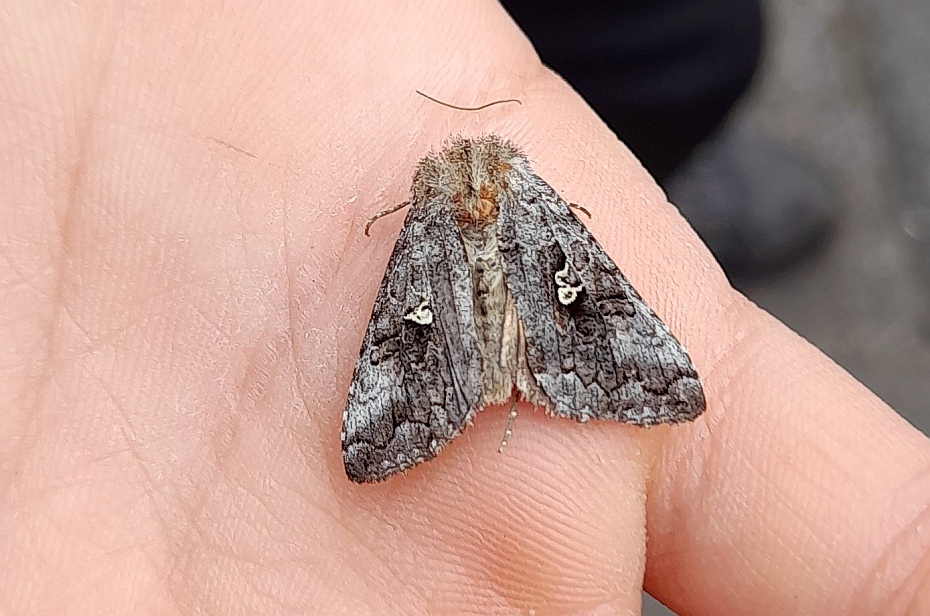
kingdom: Animalia
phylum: Arthropoda
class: Insecta
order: Lepidoptera
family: Noctuidae
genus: Syngrapha
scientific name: Syngrapha interrogationis
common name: Scarce silver y
